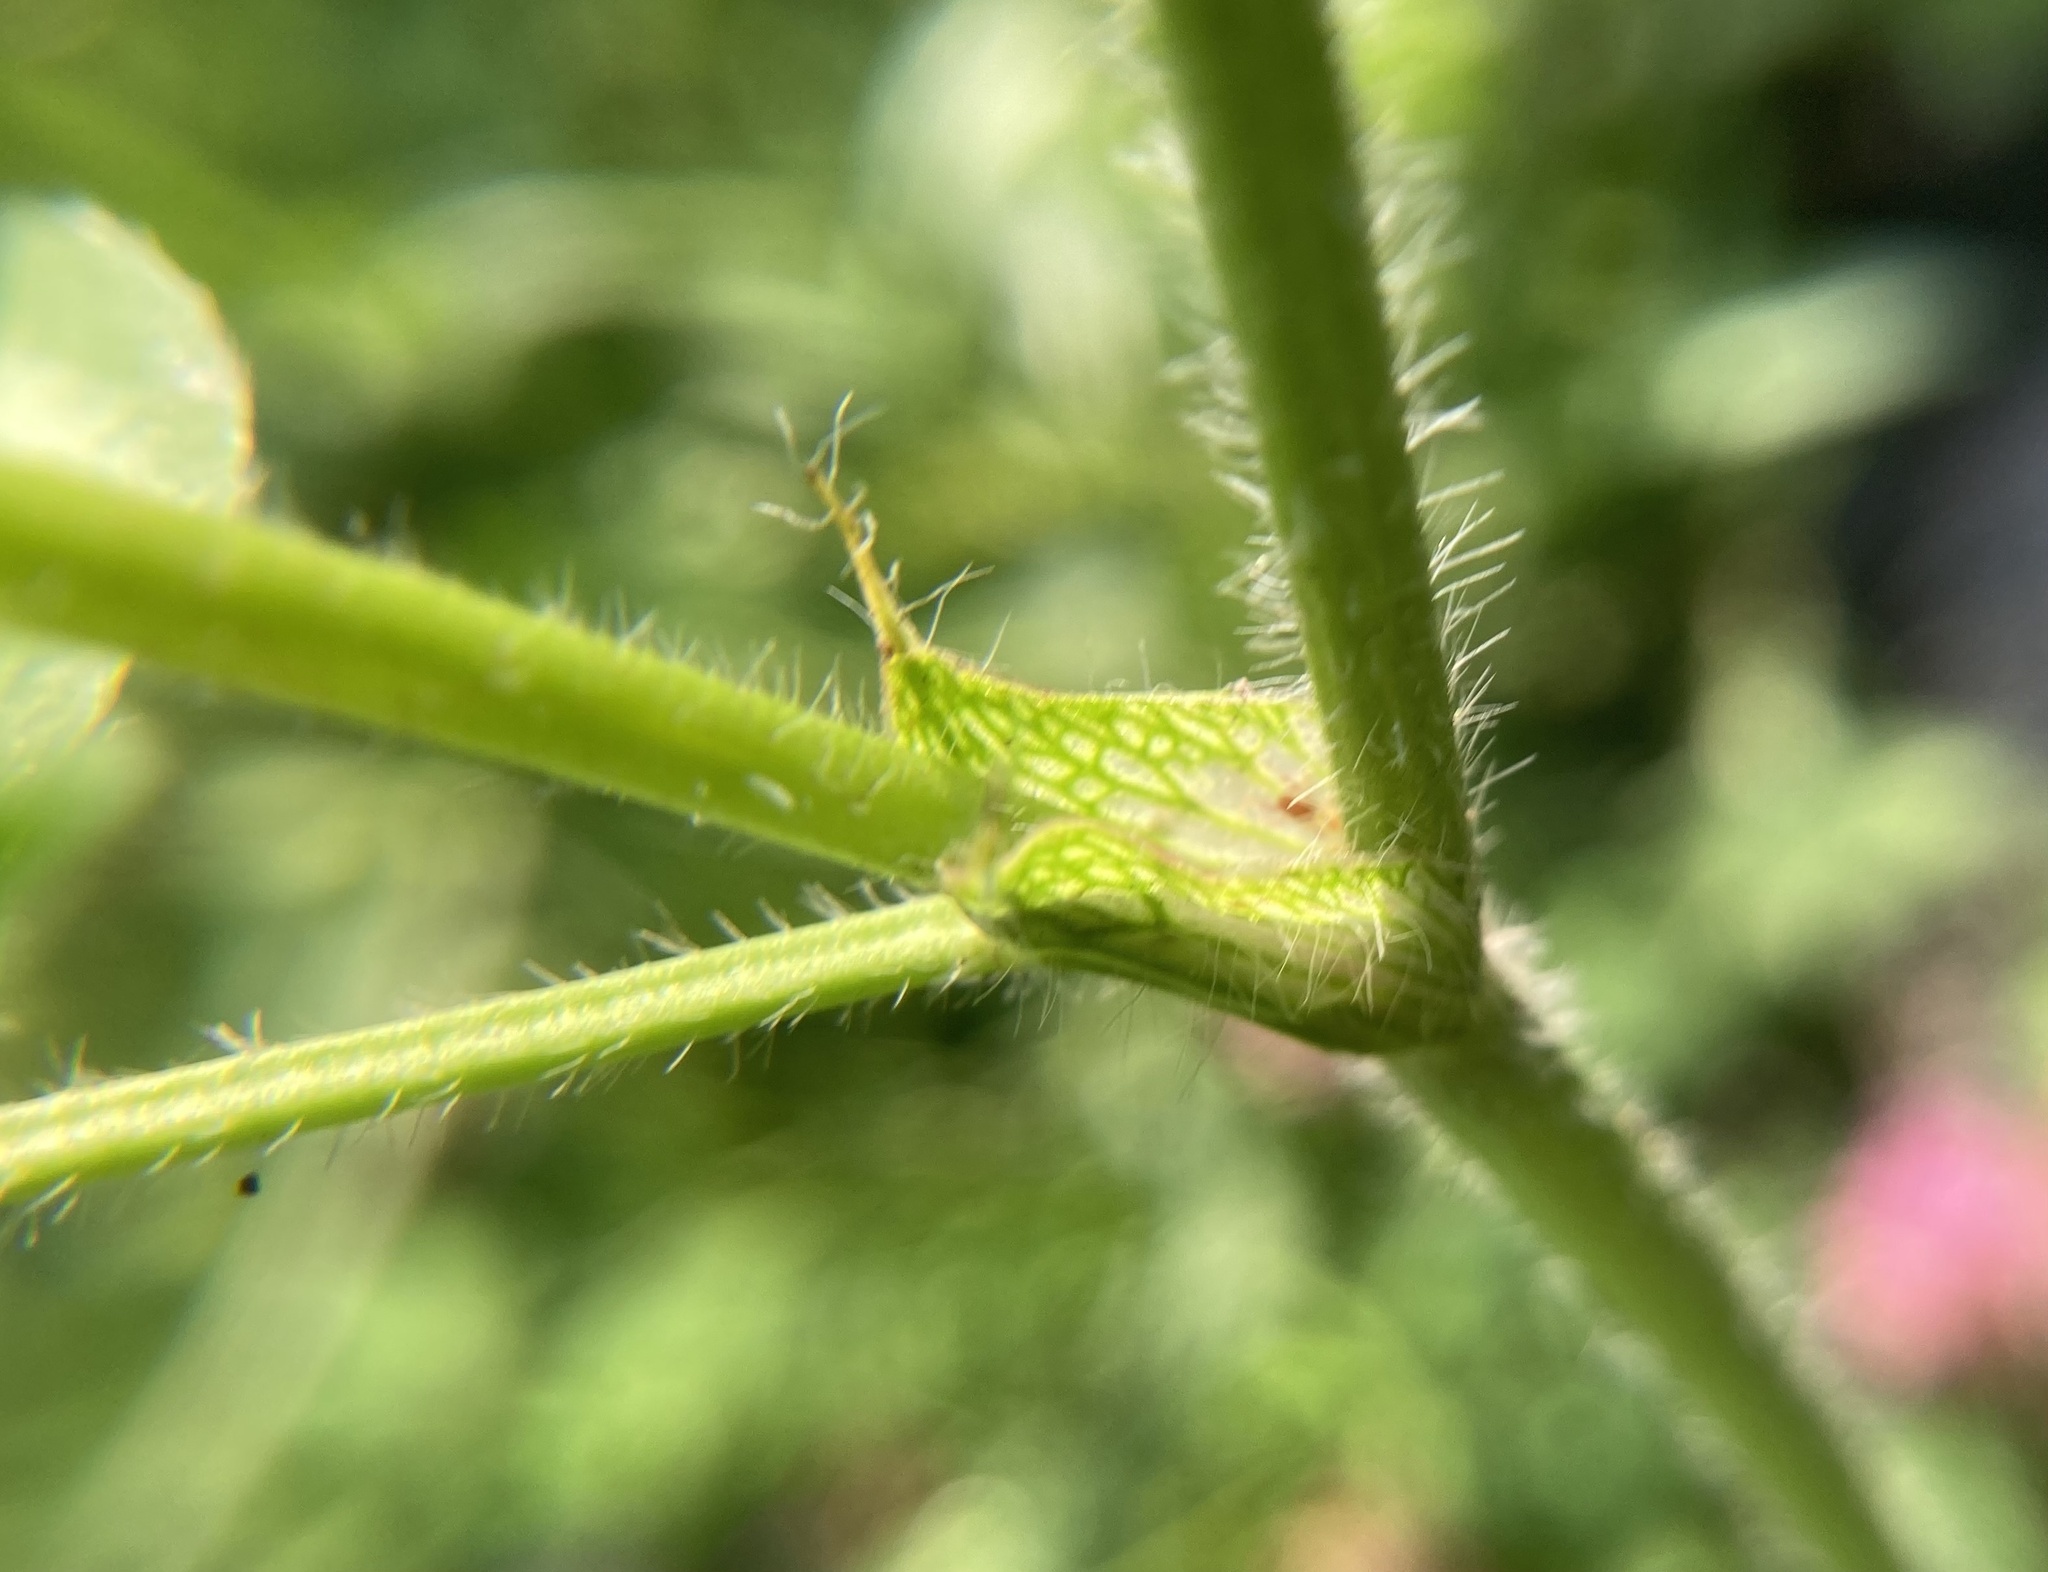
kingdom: Plantae
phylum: Tracheophyta
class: Magnoliopsida
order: Fabales
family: Fabaceae
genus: Trifolium
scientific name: Trifolium pratense
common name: Red clover
